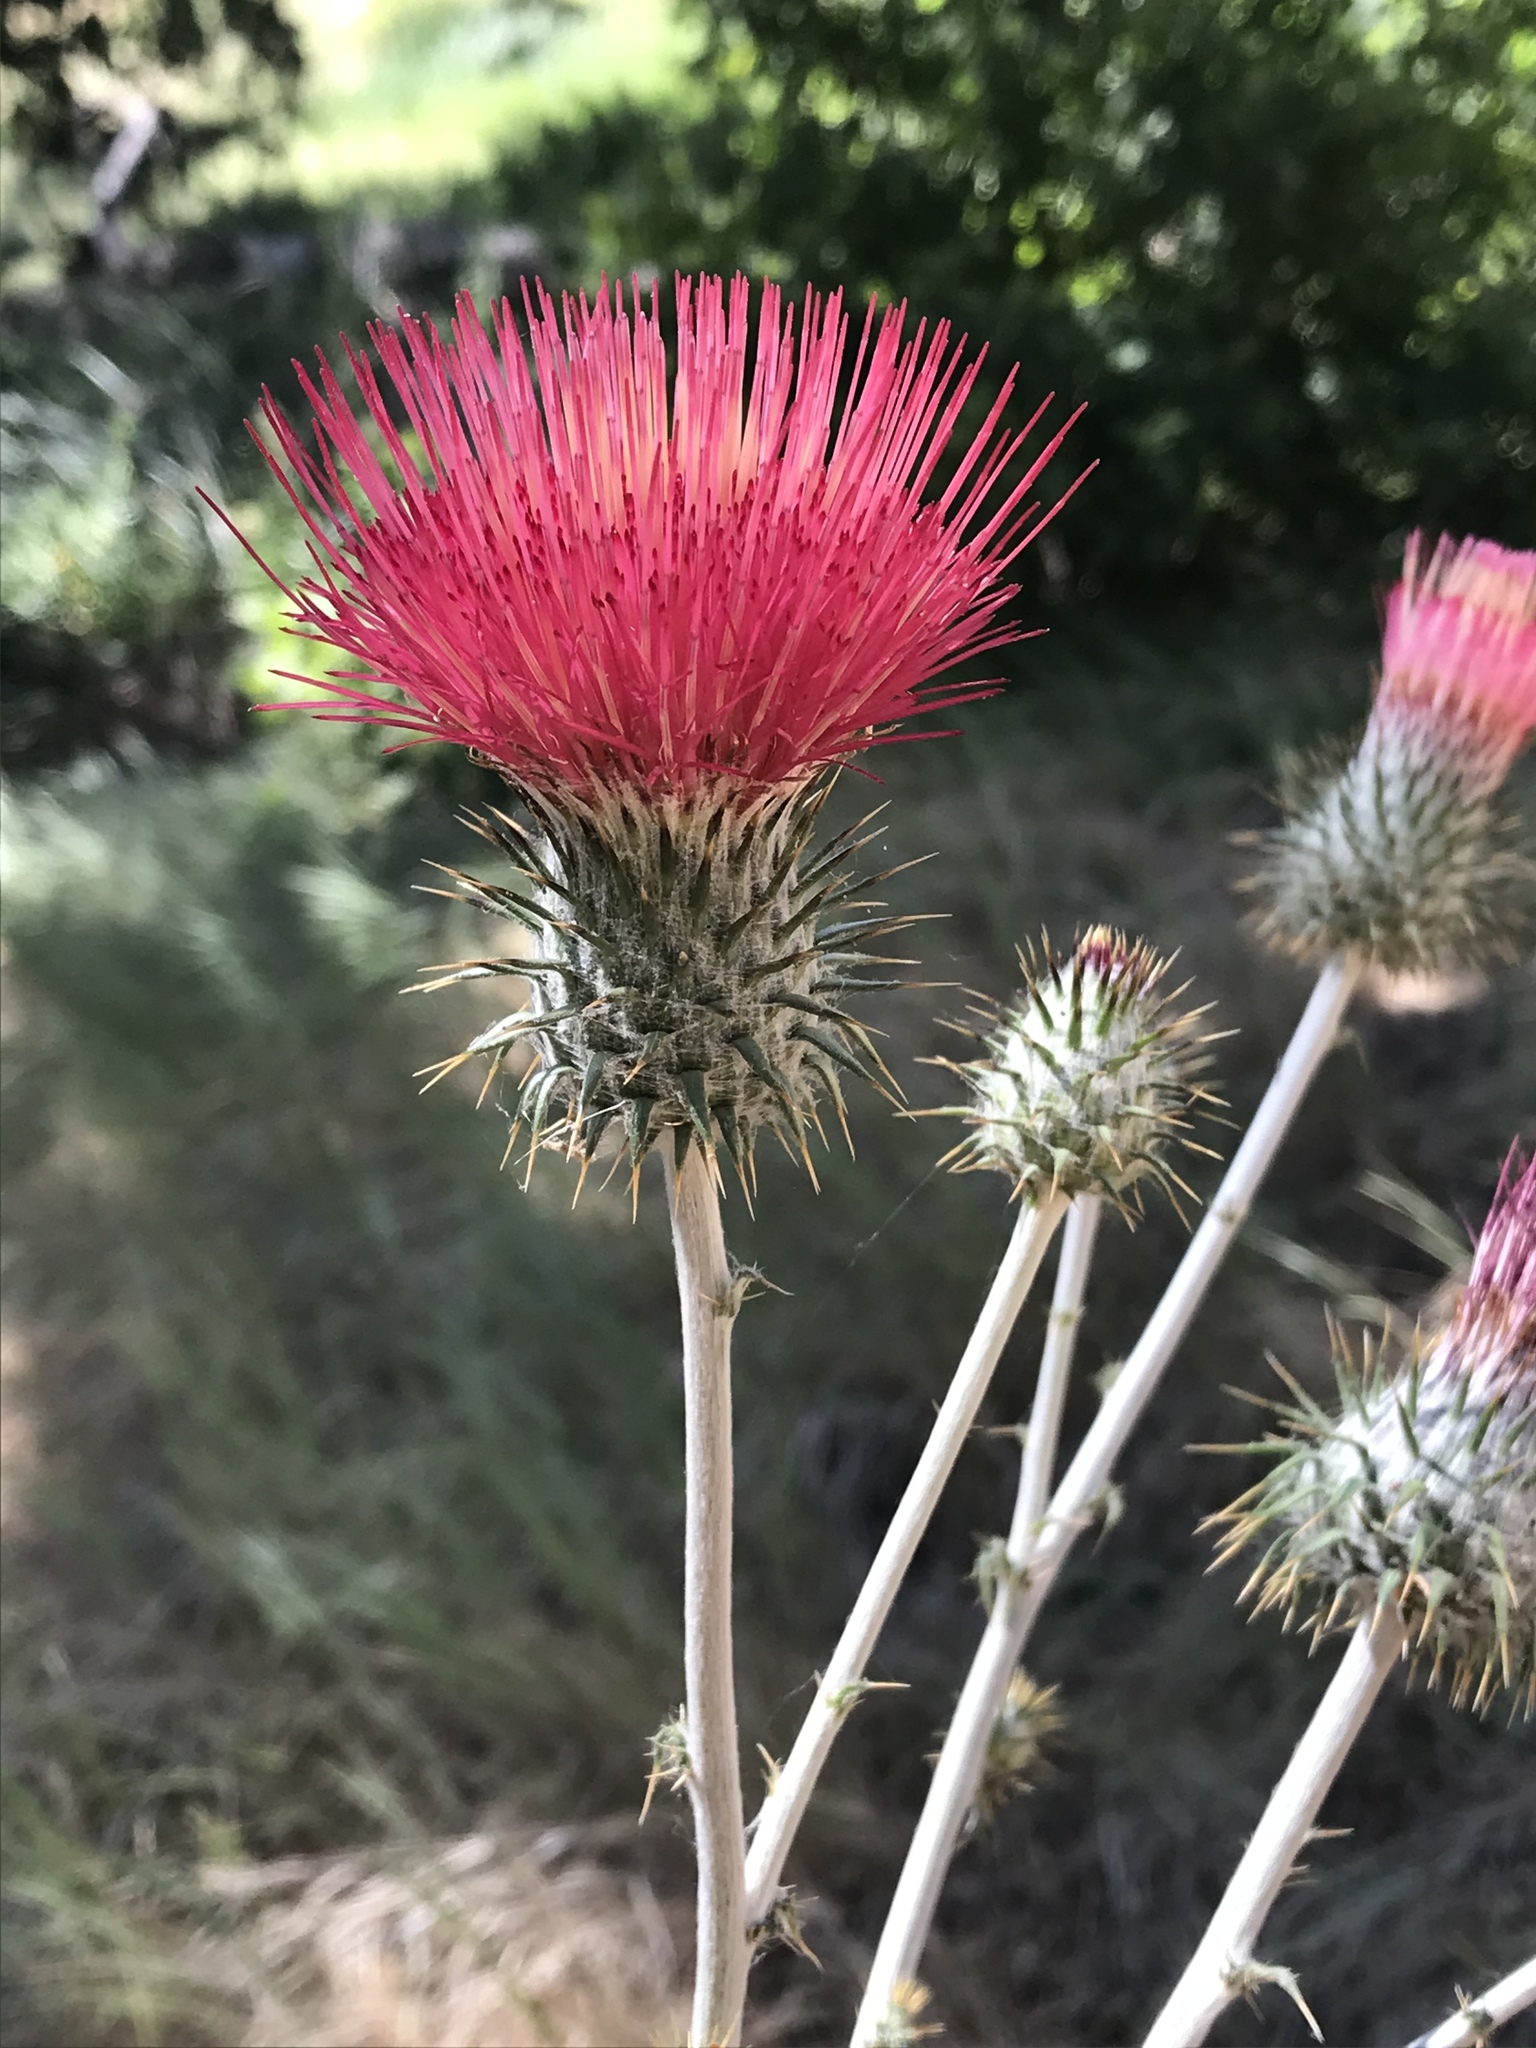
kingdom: Plantae
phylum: Tracheophyta
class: Magnoliopsida
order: Asterales
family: Asteraceae
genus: Cirsium
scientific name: Cirsium occidentale
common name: Western thistle
